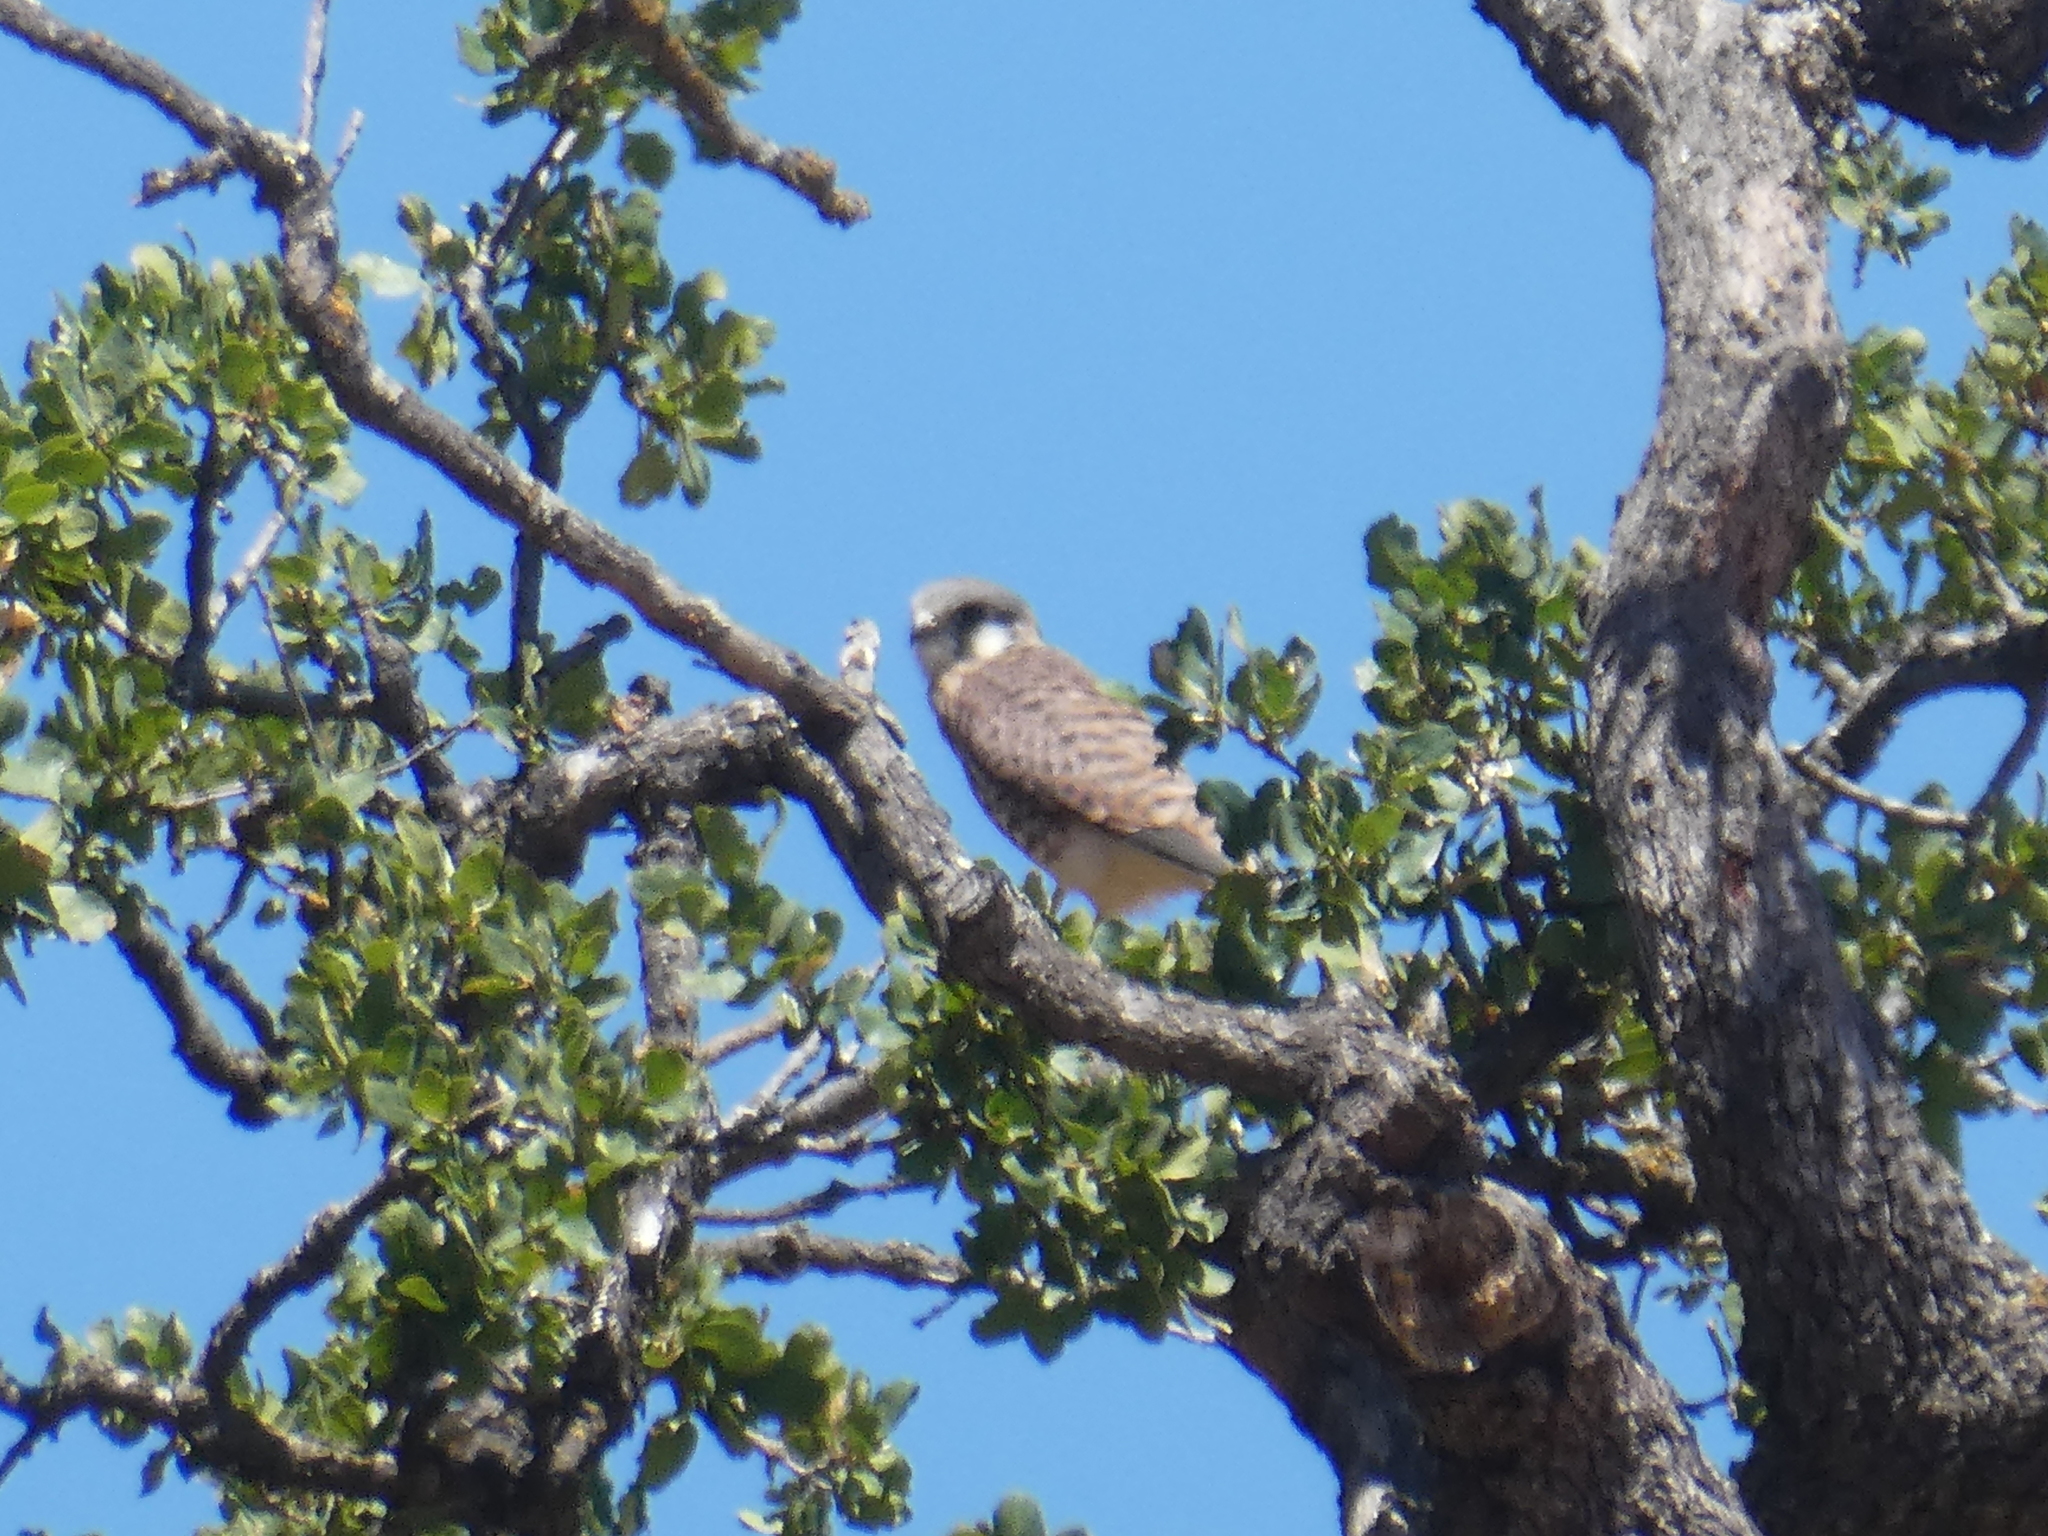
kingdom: Animalia
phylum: Chordata
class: Aves
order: Falconiformes
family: Falconidae
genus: Falco
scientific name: Falco sparverius
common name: American kestrel
